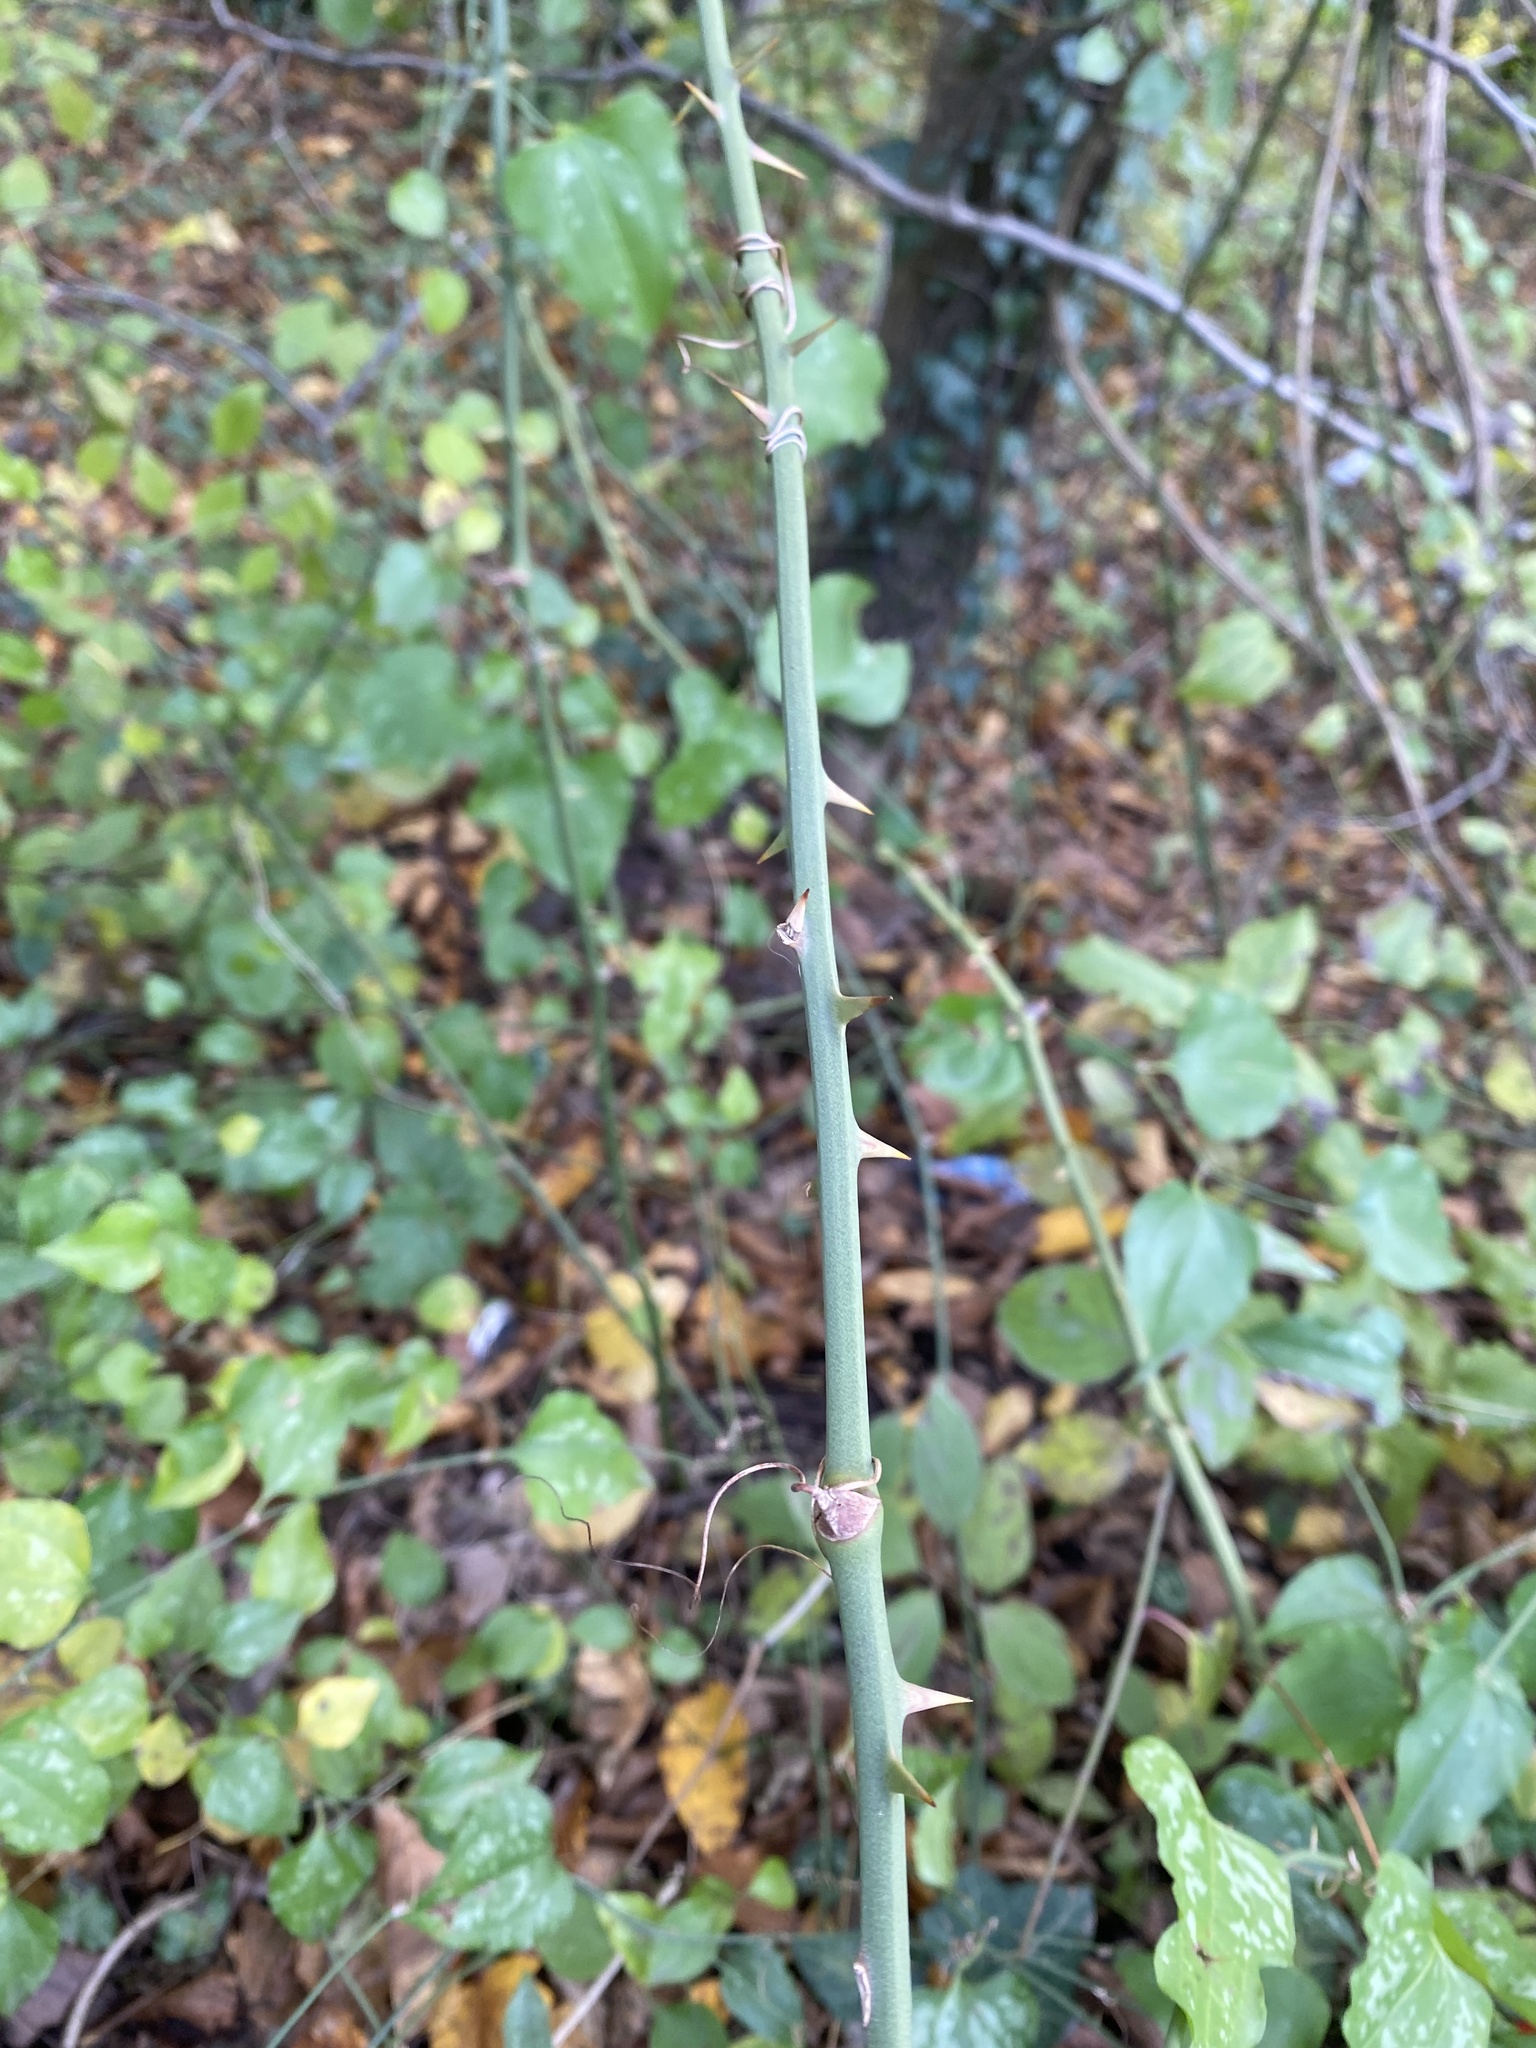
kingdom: Plantae
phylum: Tracheophyta
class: Liliopsida
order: Liliales
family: Smilacaceae
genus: Smilax
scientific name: Smilax excelsa
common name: Larger smilax
